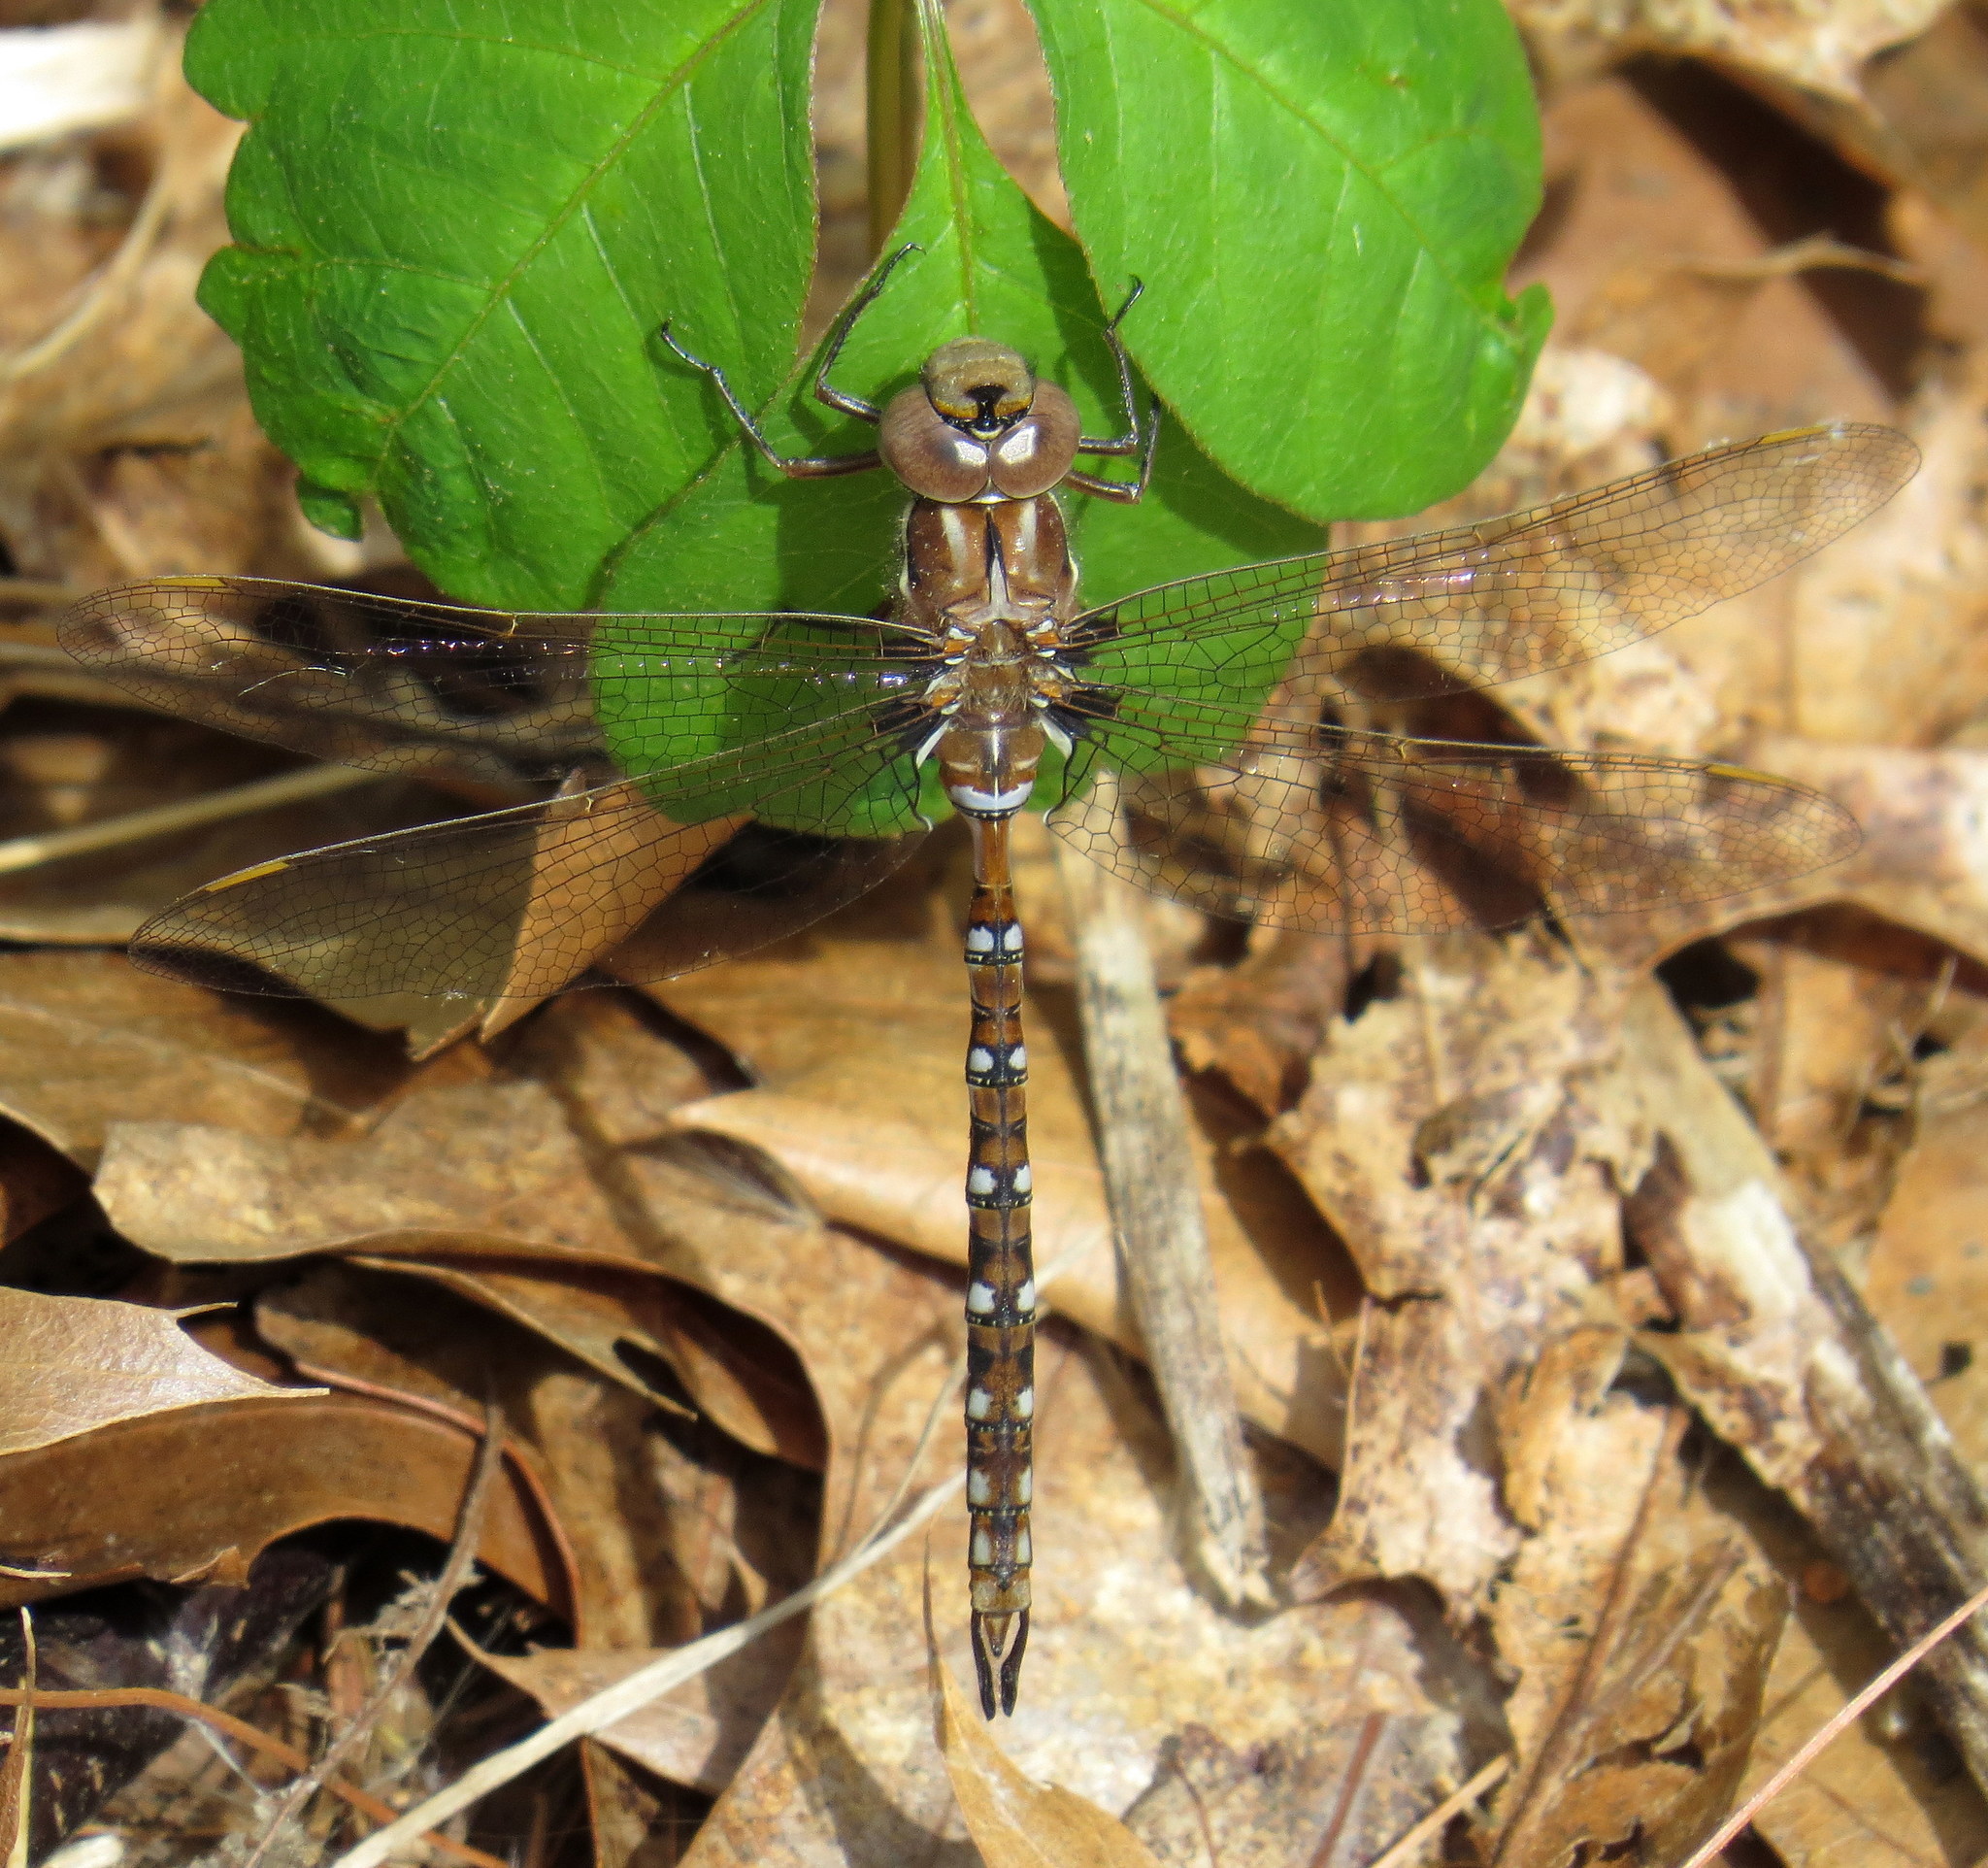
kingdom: Animalia
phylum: Arthropoda
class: Insecta
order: Odonata
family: Aeshnidae
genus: Basiaeschna
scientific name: Basiaeschna janata
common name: Springtime darner
